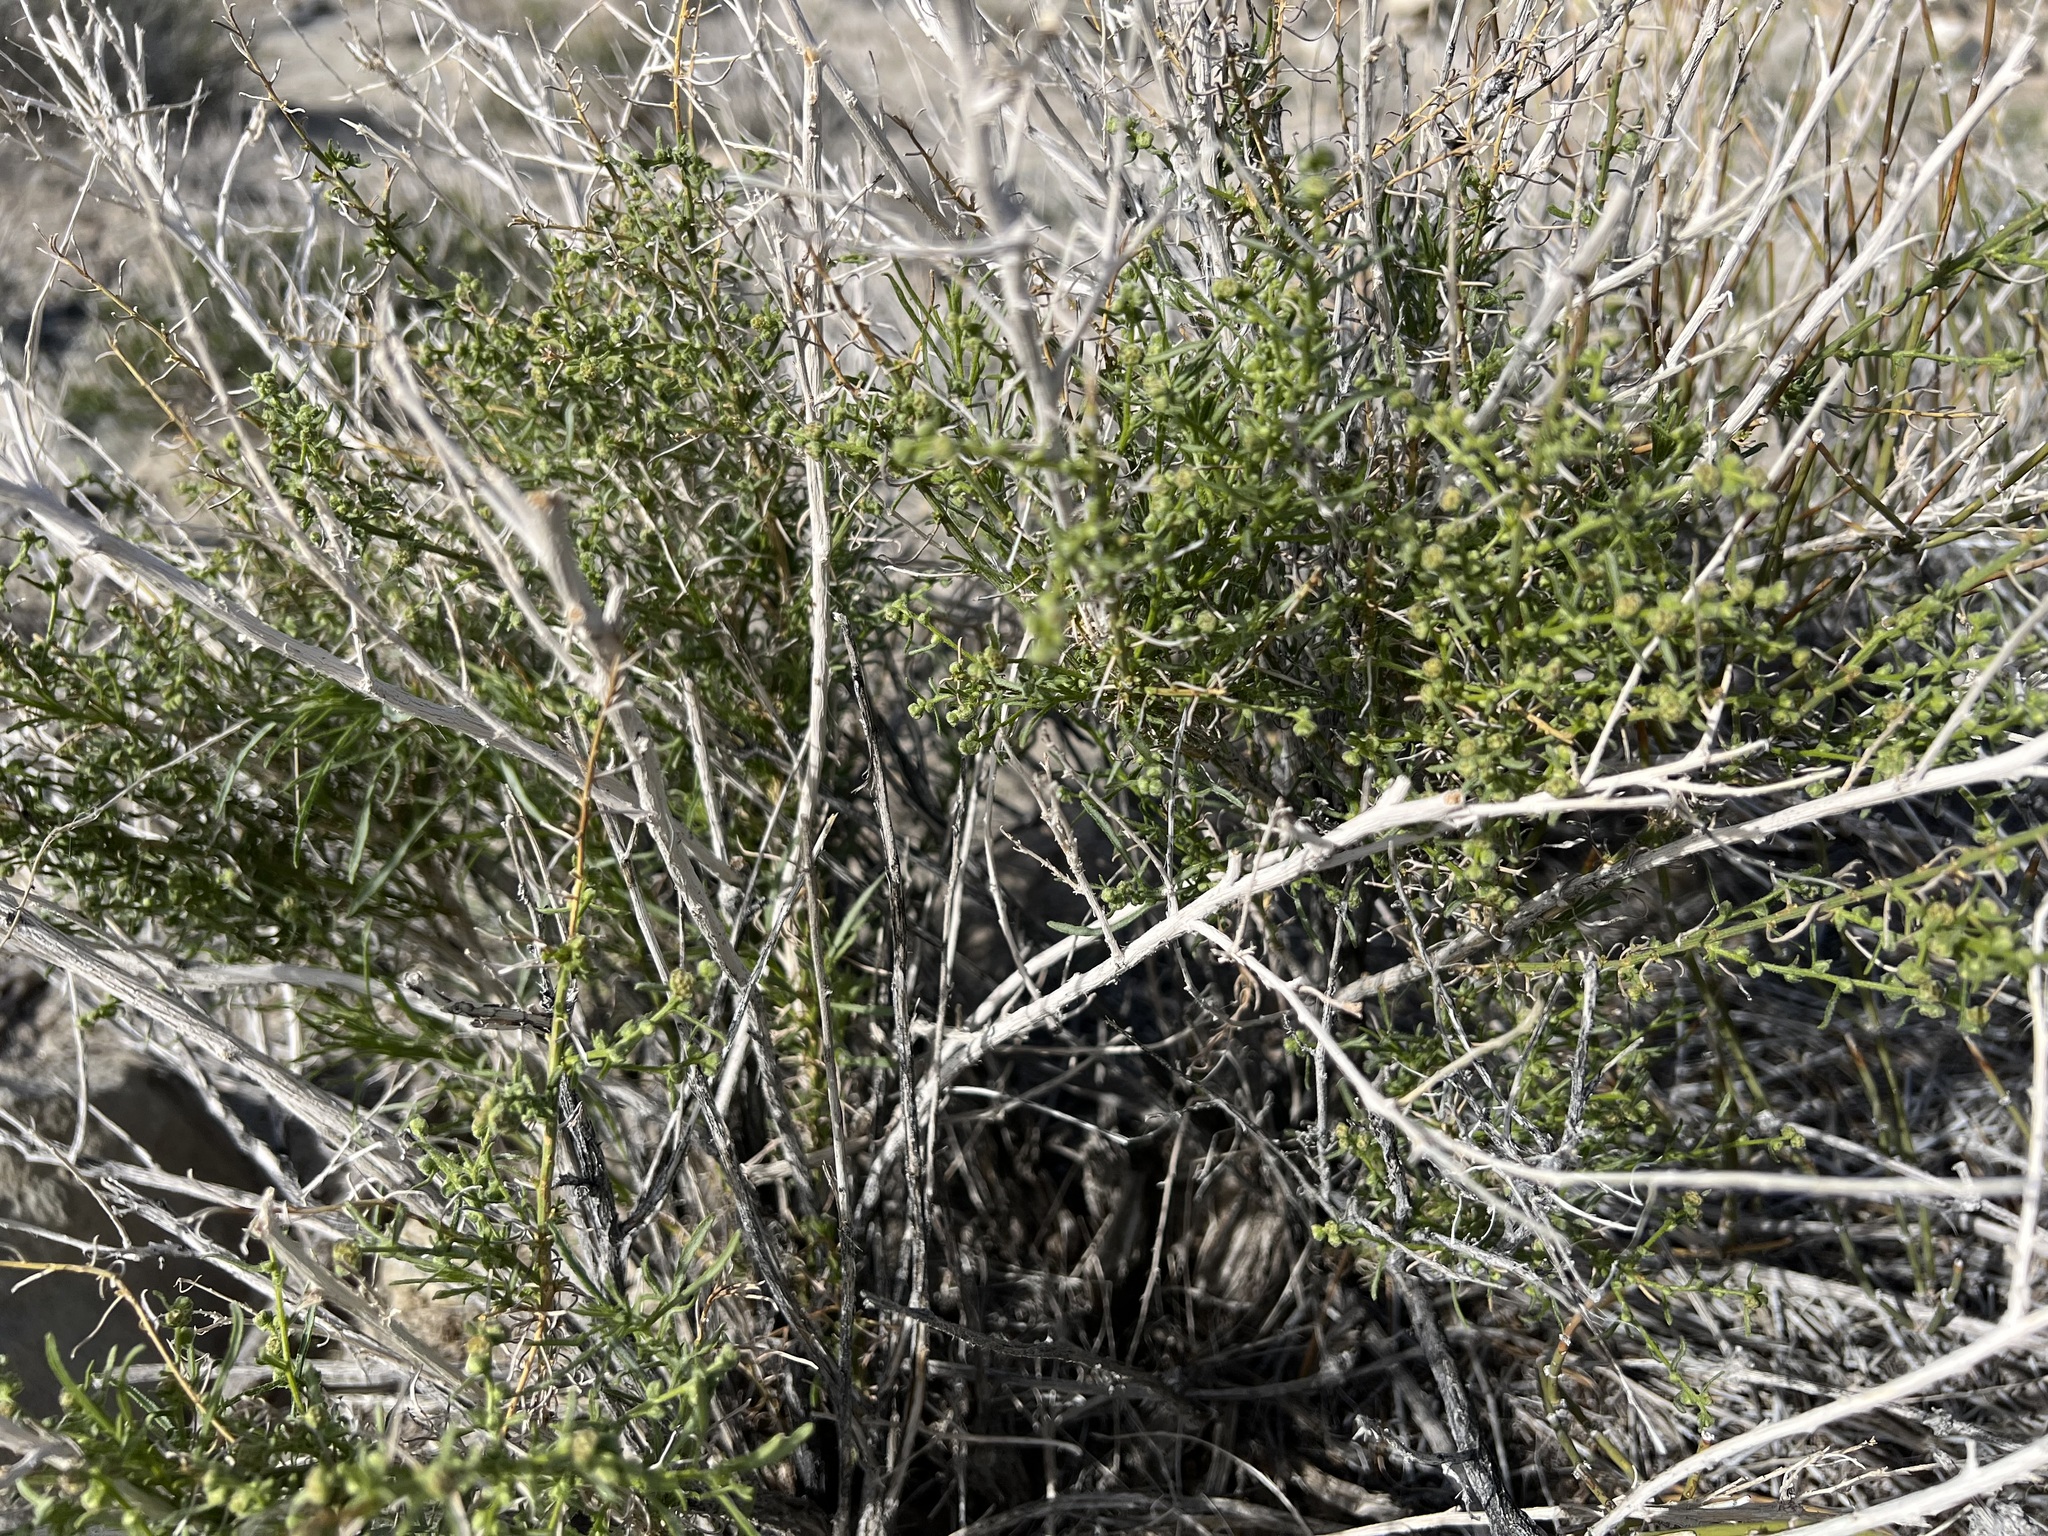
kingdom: Plantae
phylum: Tracheophyta
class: Magnoliopsida
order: Asterales
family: Asteraceae
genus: Ambrosia
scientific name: Ambrosia salsola
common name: Burrobrush
